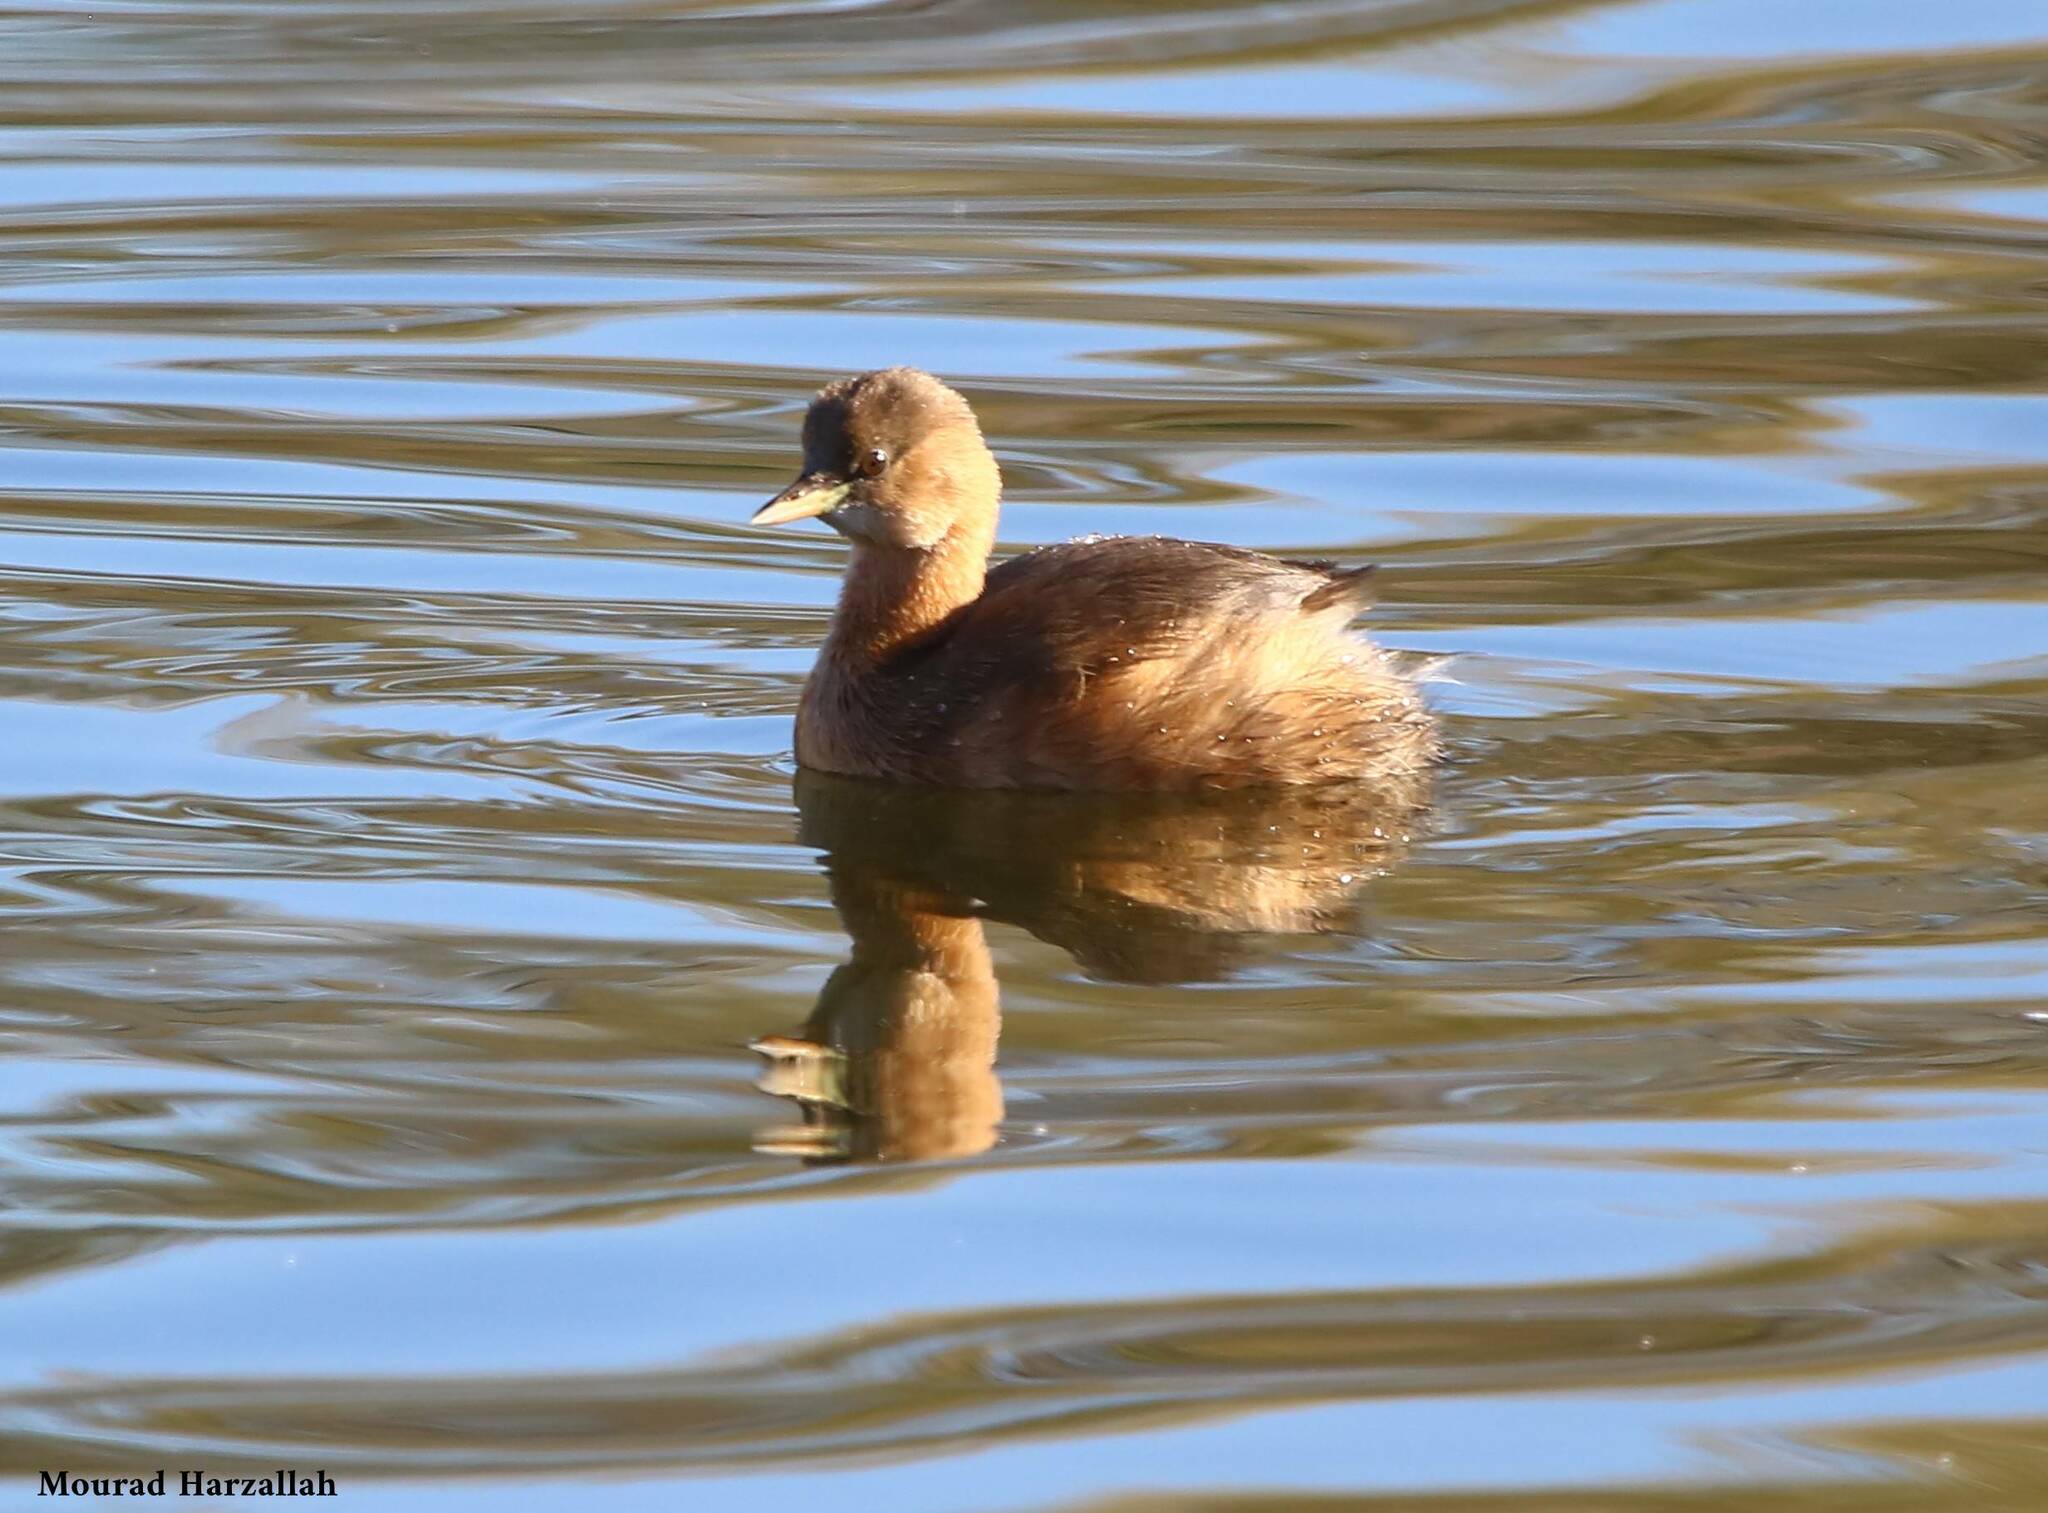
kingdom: Animalia
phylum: Chordata
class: Aves
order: Podicipediformes
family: Podicipedidae
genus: Tachybaptus
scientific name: Tachybaptus ruficollis
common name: Little grebe
